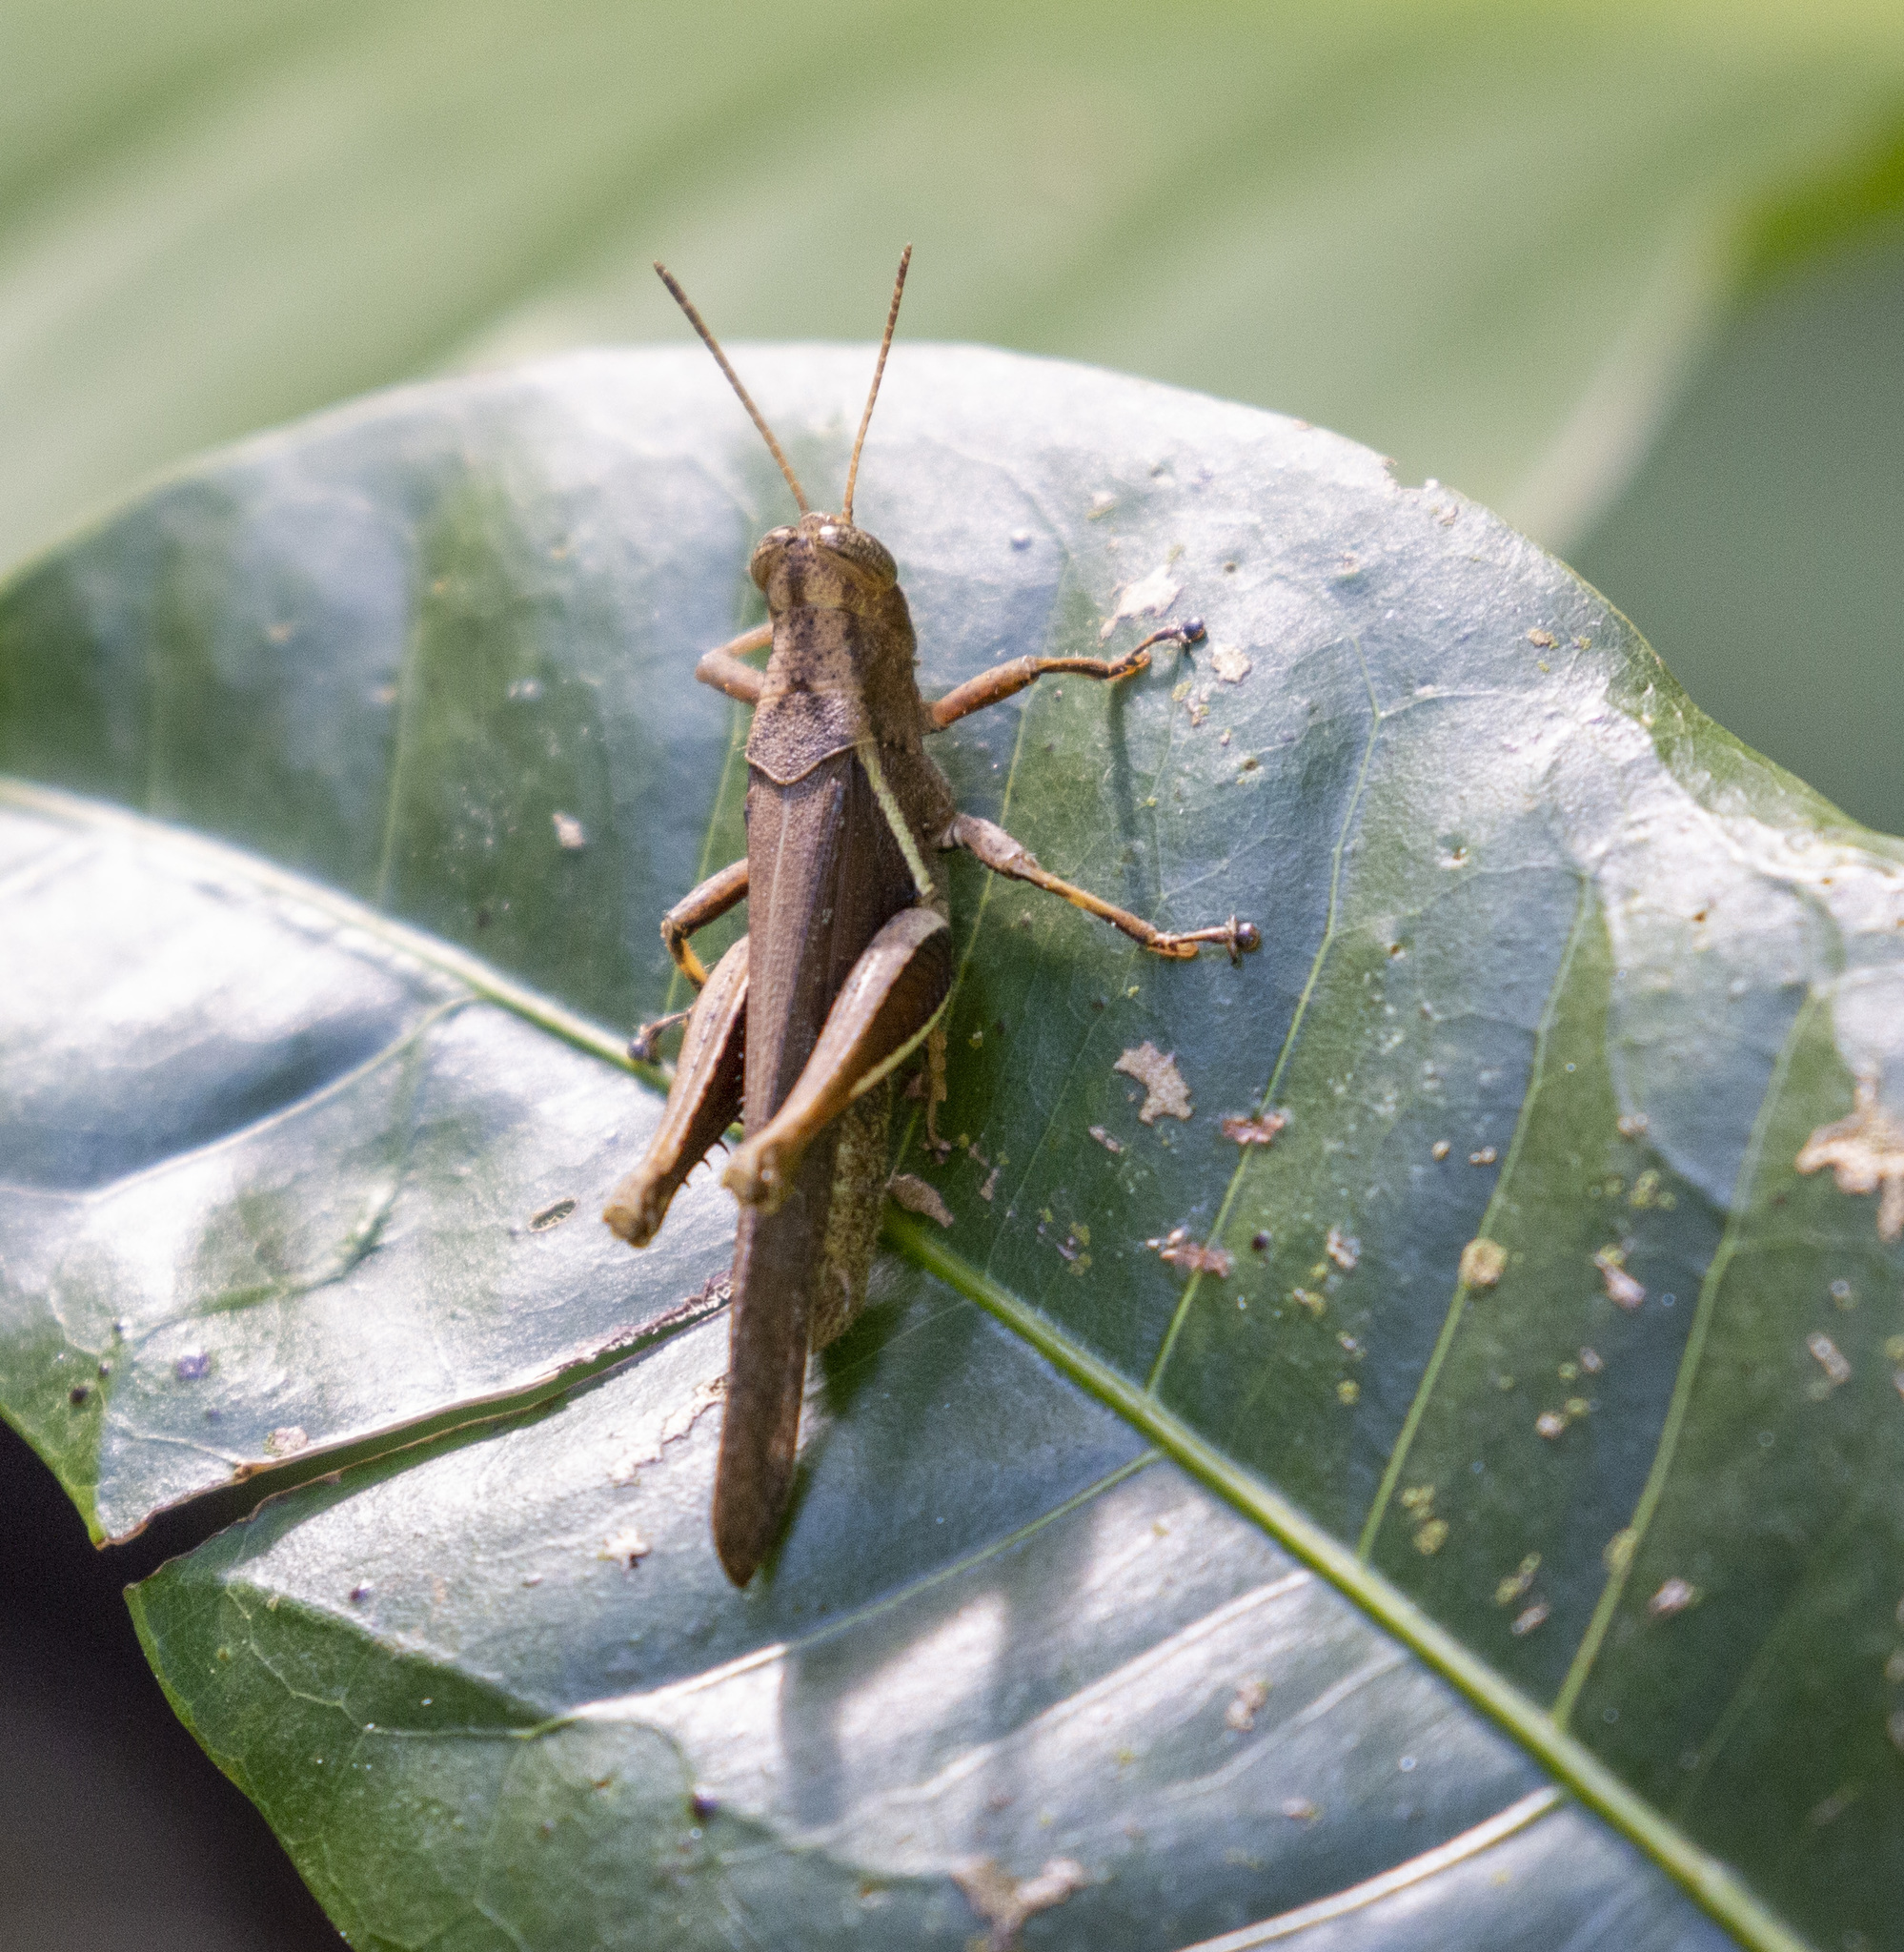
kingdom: Animalia
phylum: Arthropoda
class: Insecta
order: Orthoptera
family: Acrididae
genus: Abracris
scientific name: Abracris flavolineata
